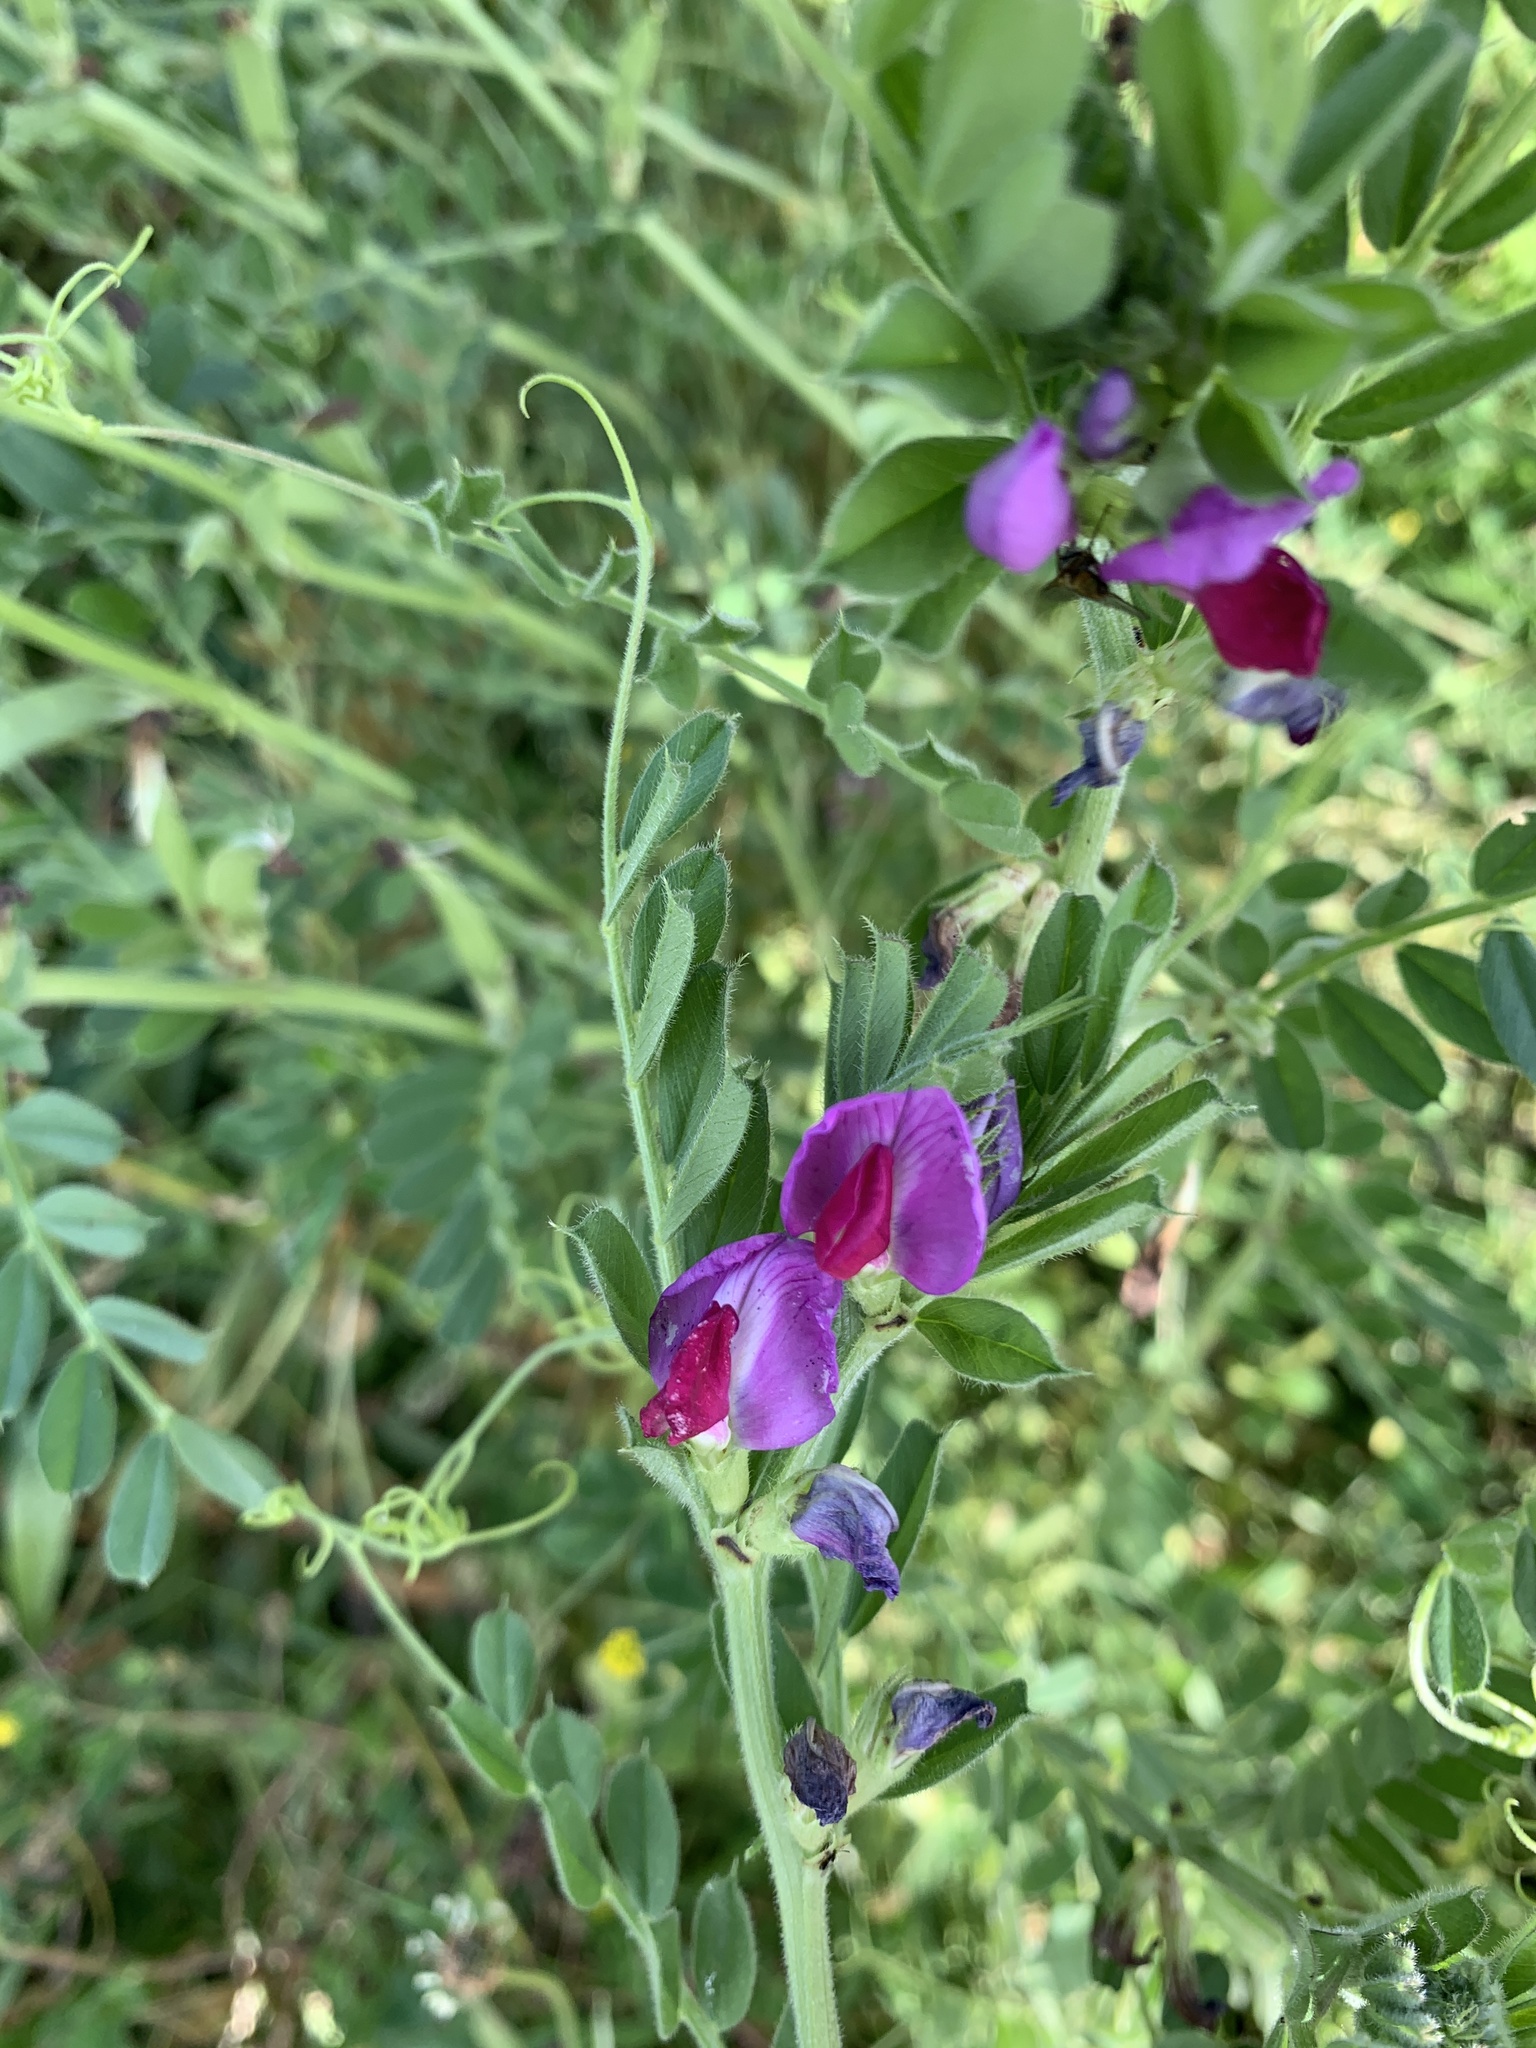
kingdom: Plantae
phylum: Tracheophyta
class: Magnoliopsida
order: Fabales
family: Fabaceae
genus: Vicia
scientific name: Vicia sativa
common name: Garden vetch
